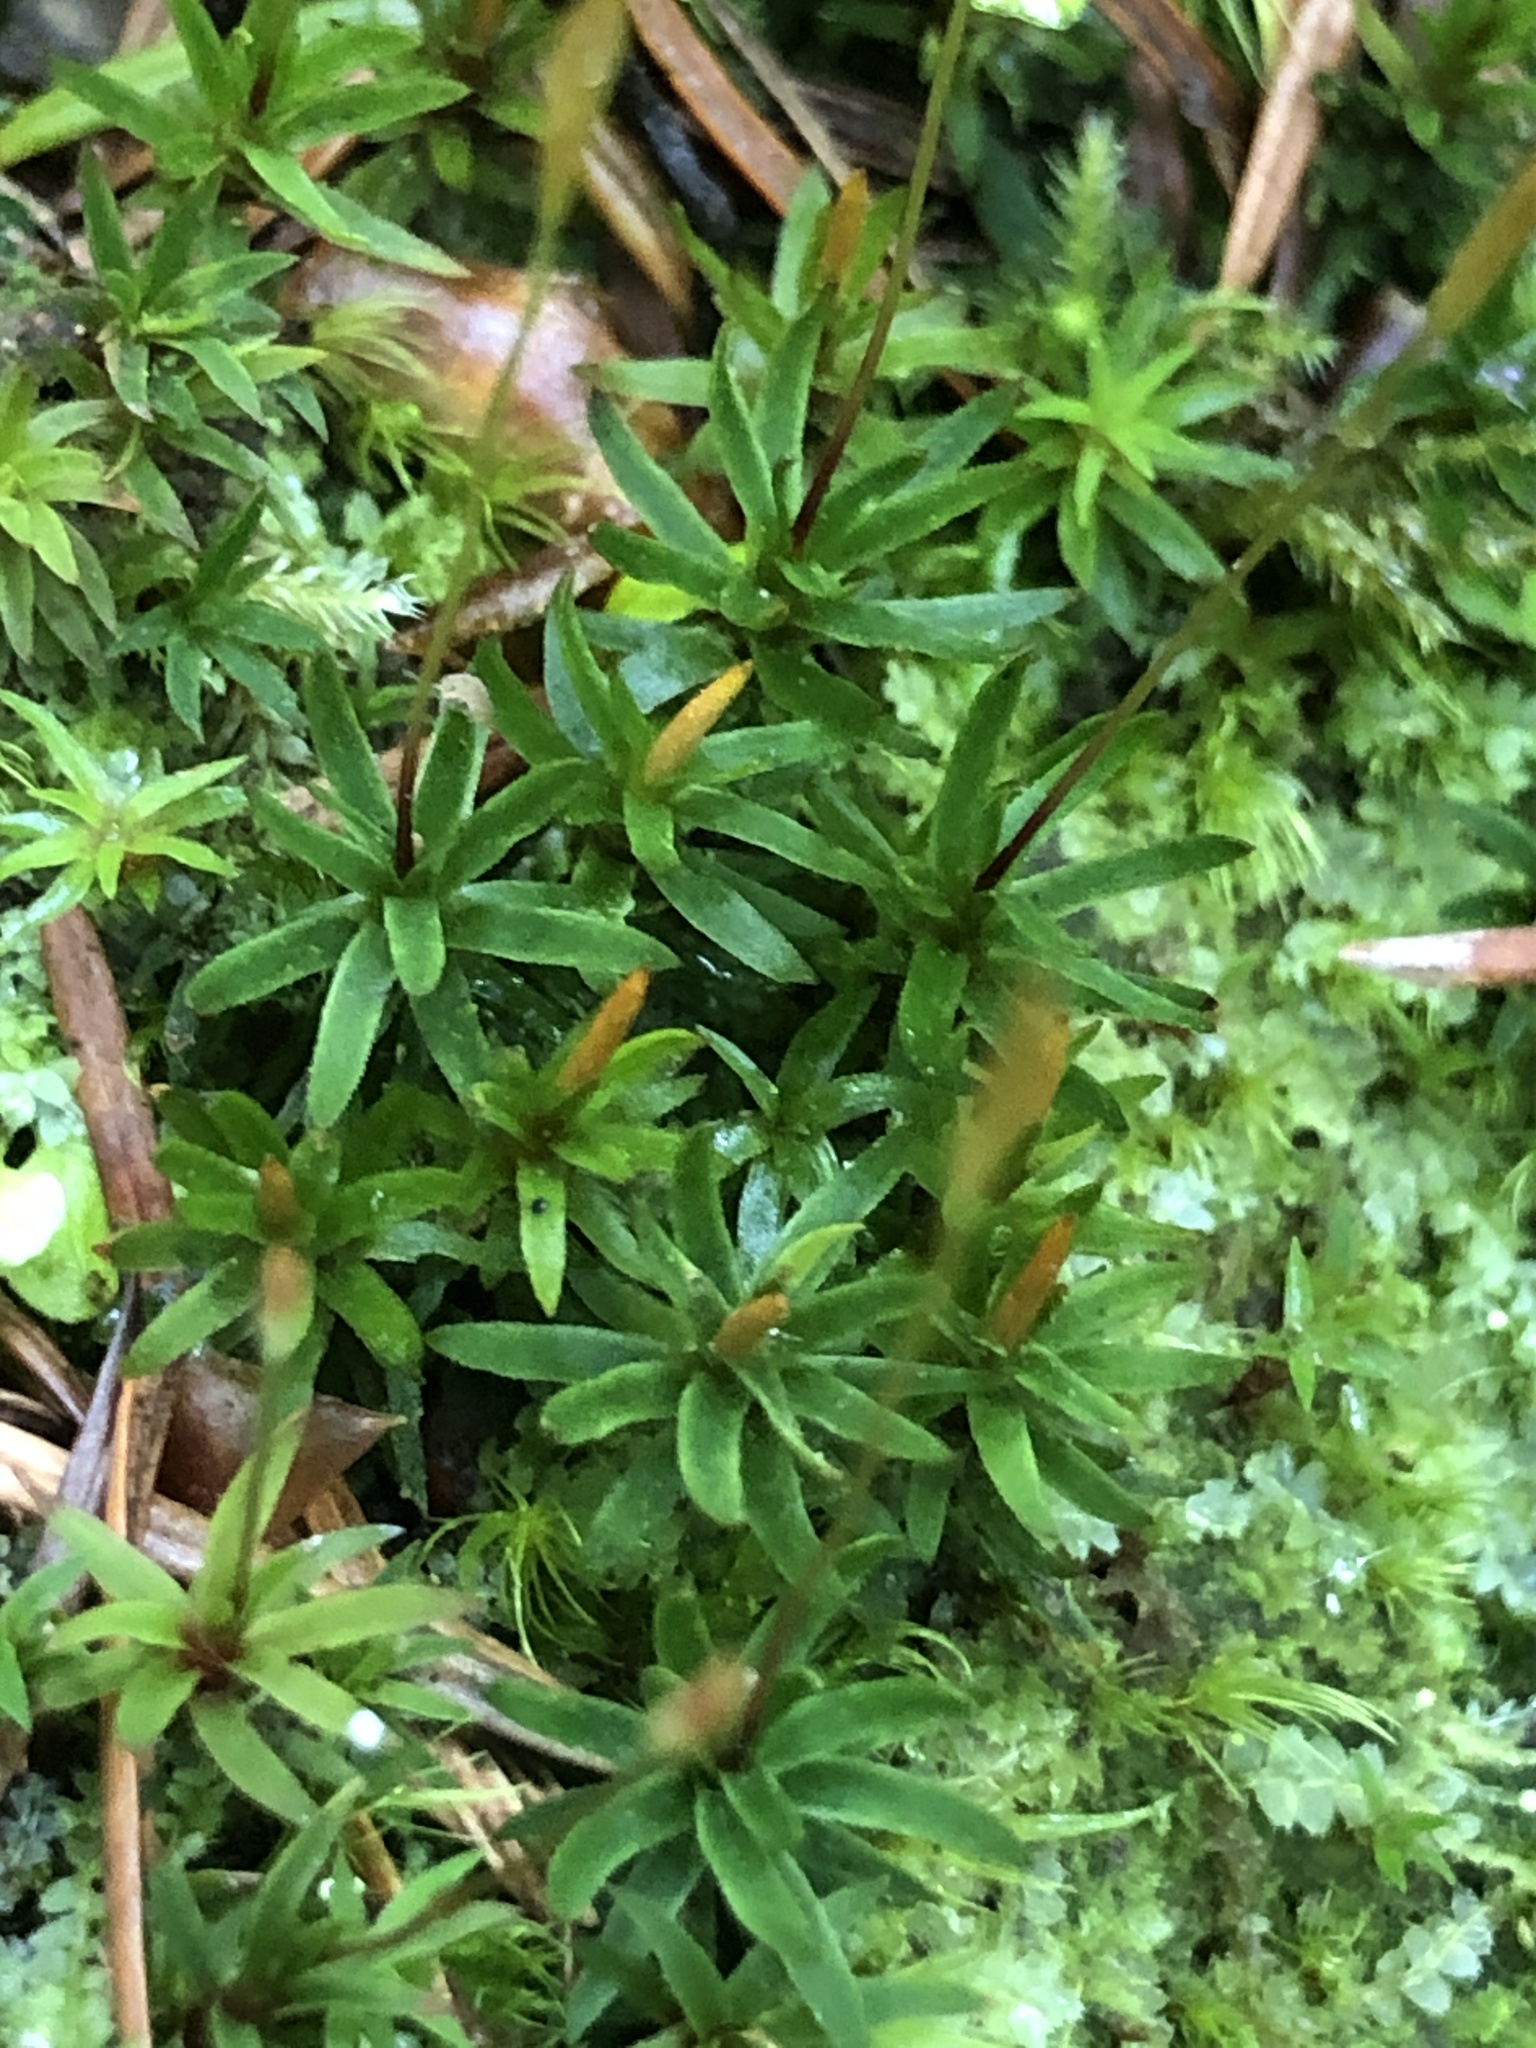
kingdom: Plantae
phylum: Bryophyta
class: Polytrichopsida
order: Polytrichales
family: Polytrichaceae
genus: Pogonatum
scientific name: Pogonatum aloides
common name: Aloe haircap
